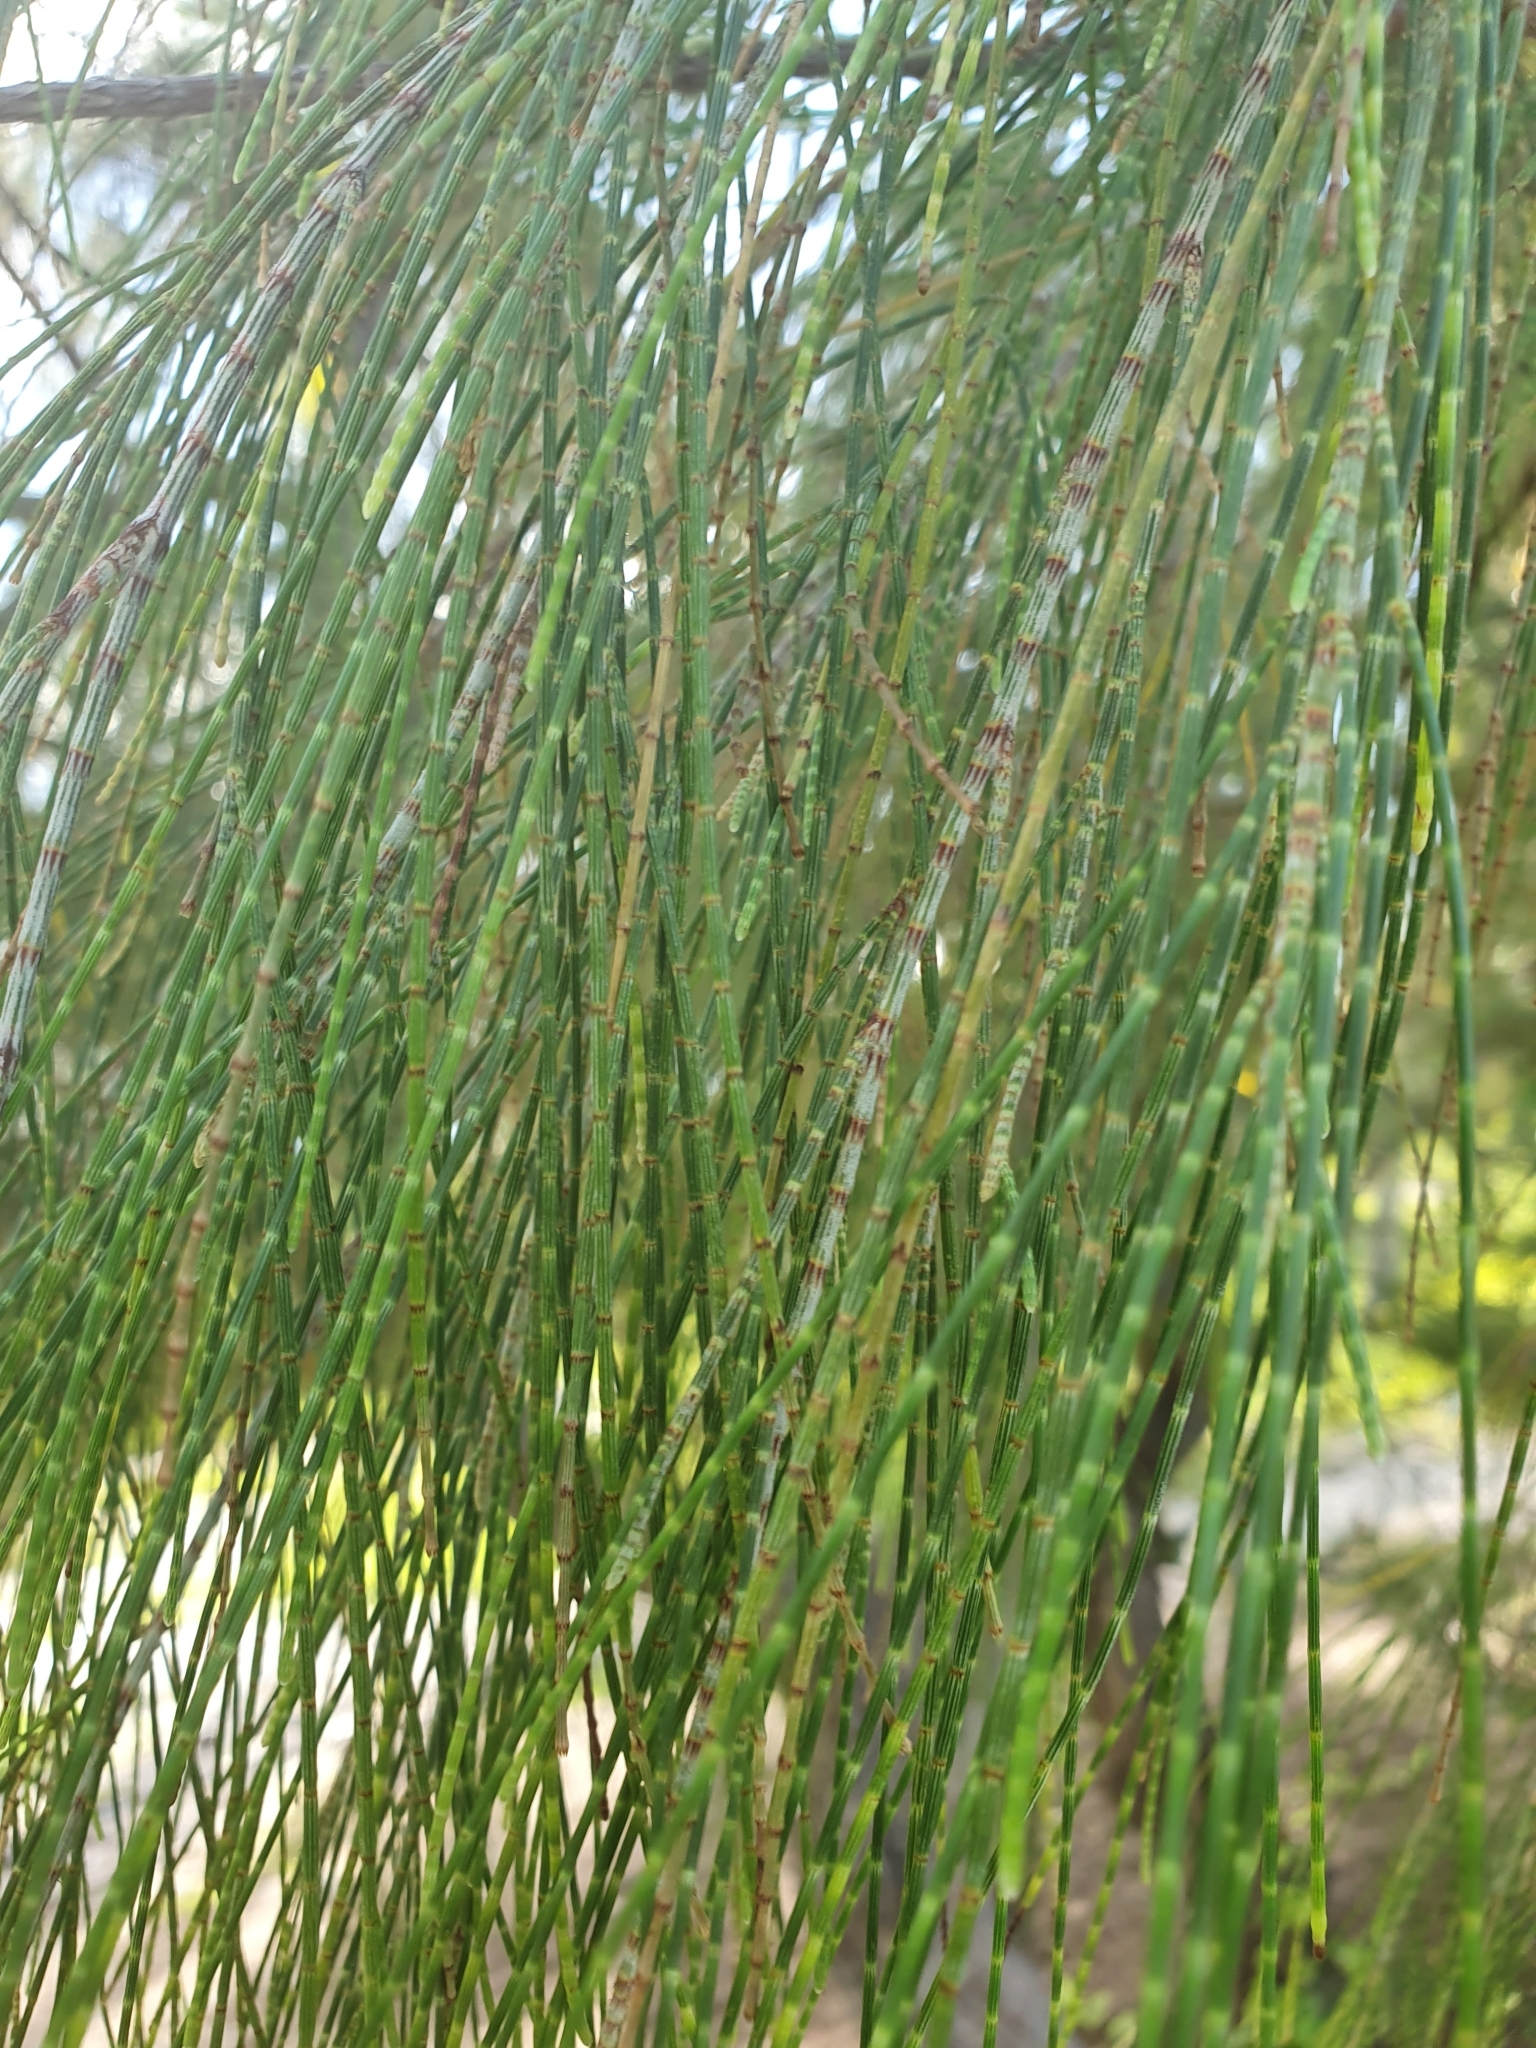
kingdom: Plantae
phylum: Tracheophyta
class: Magnoliopsida
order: Fagales
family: Casuarinaceae
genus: Casuarina
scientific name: Casuarina equisetifolia
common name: Beach sheoak
